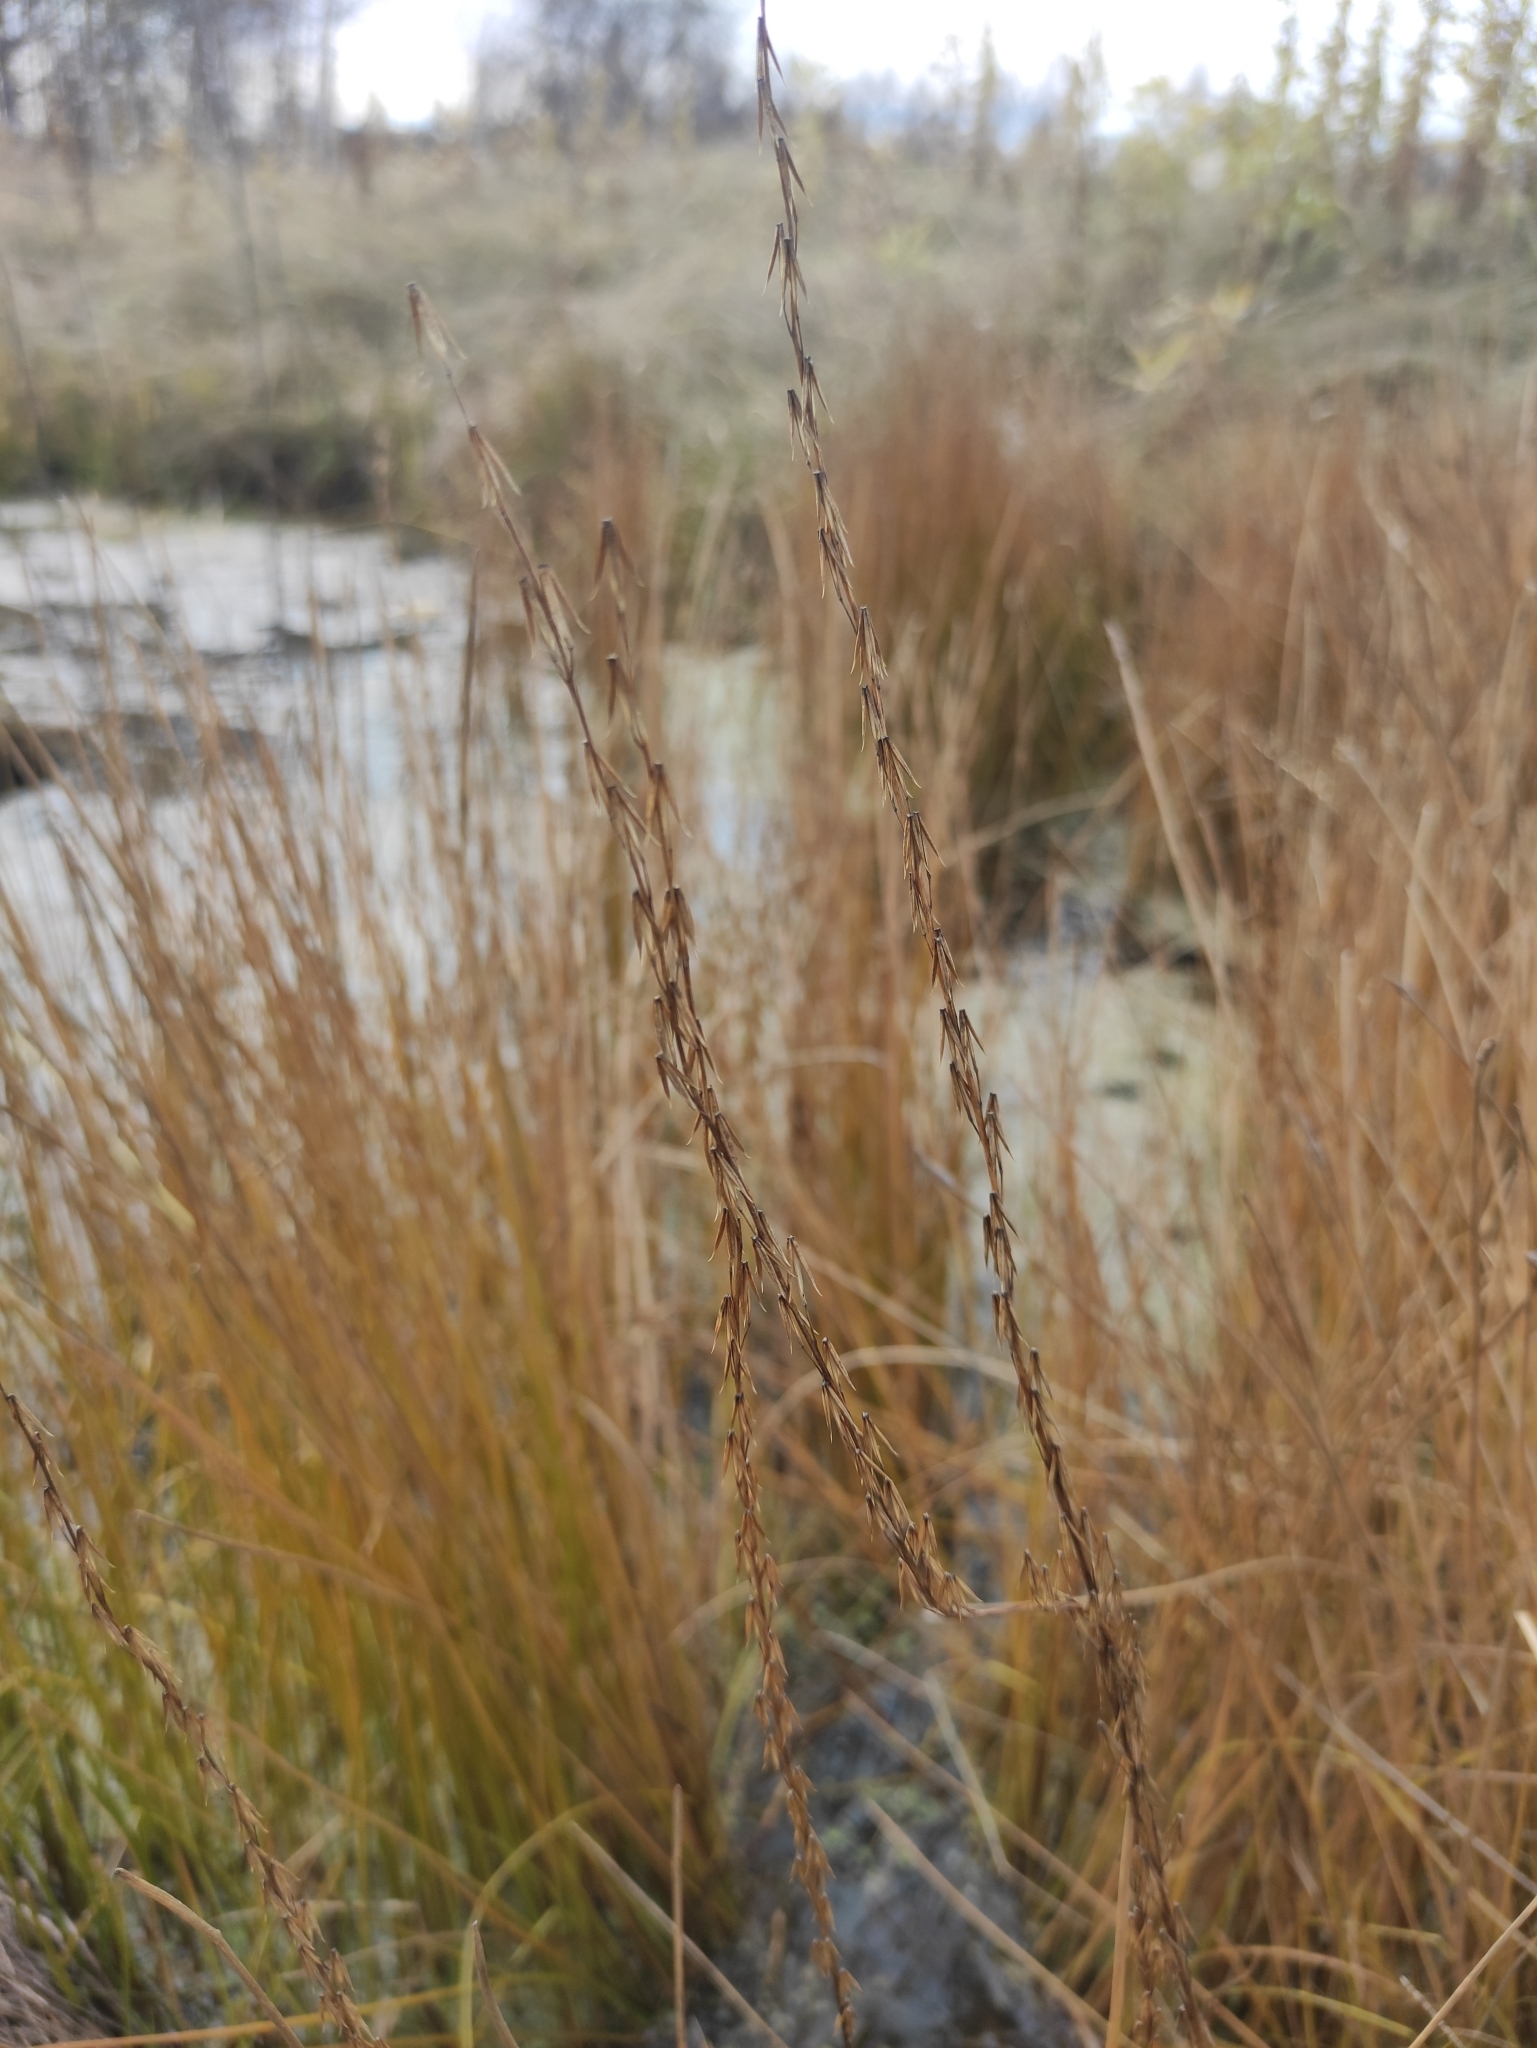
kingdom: Plantae
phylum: Tracheophyta
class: Liliopsida
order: Alismatales
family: Juncaginaceae
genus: Triglochin
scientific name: Triglochin palustris
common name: Marsh arrowgrass
